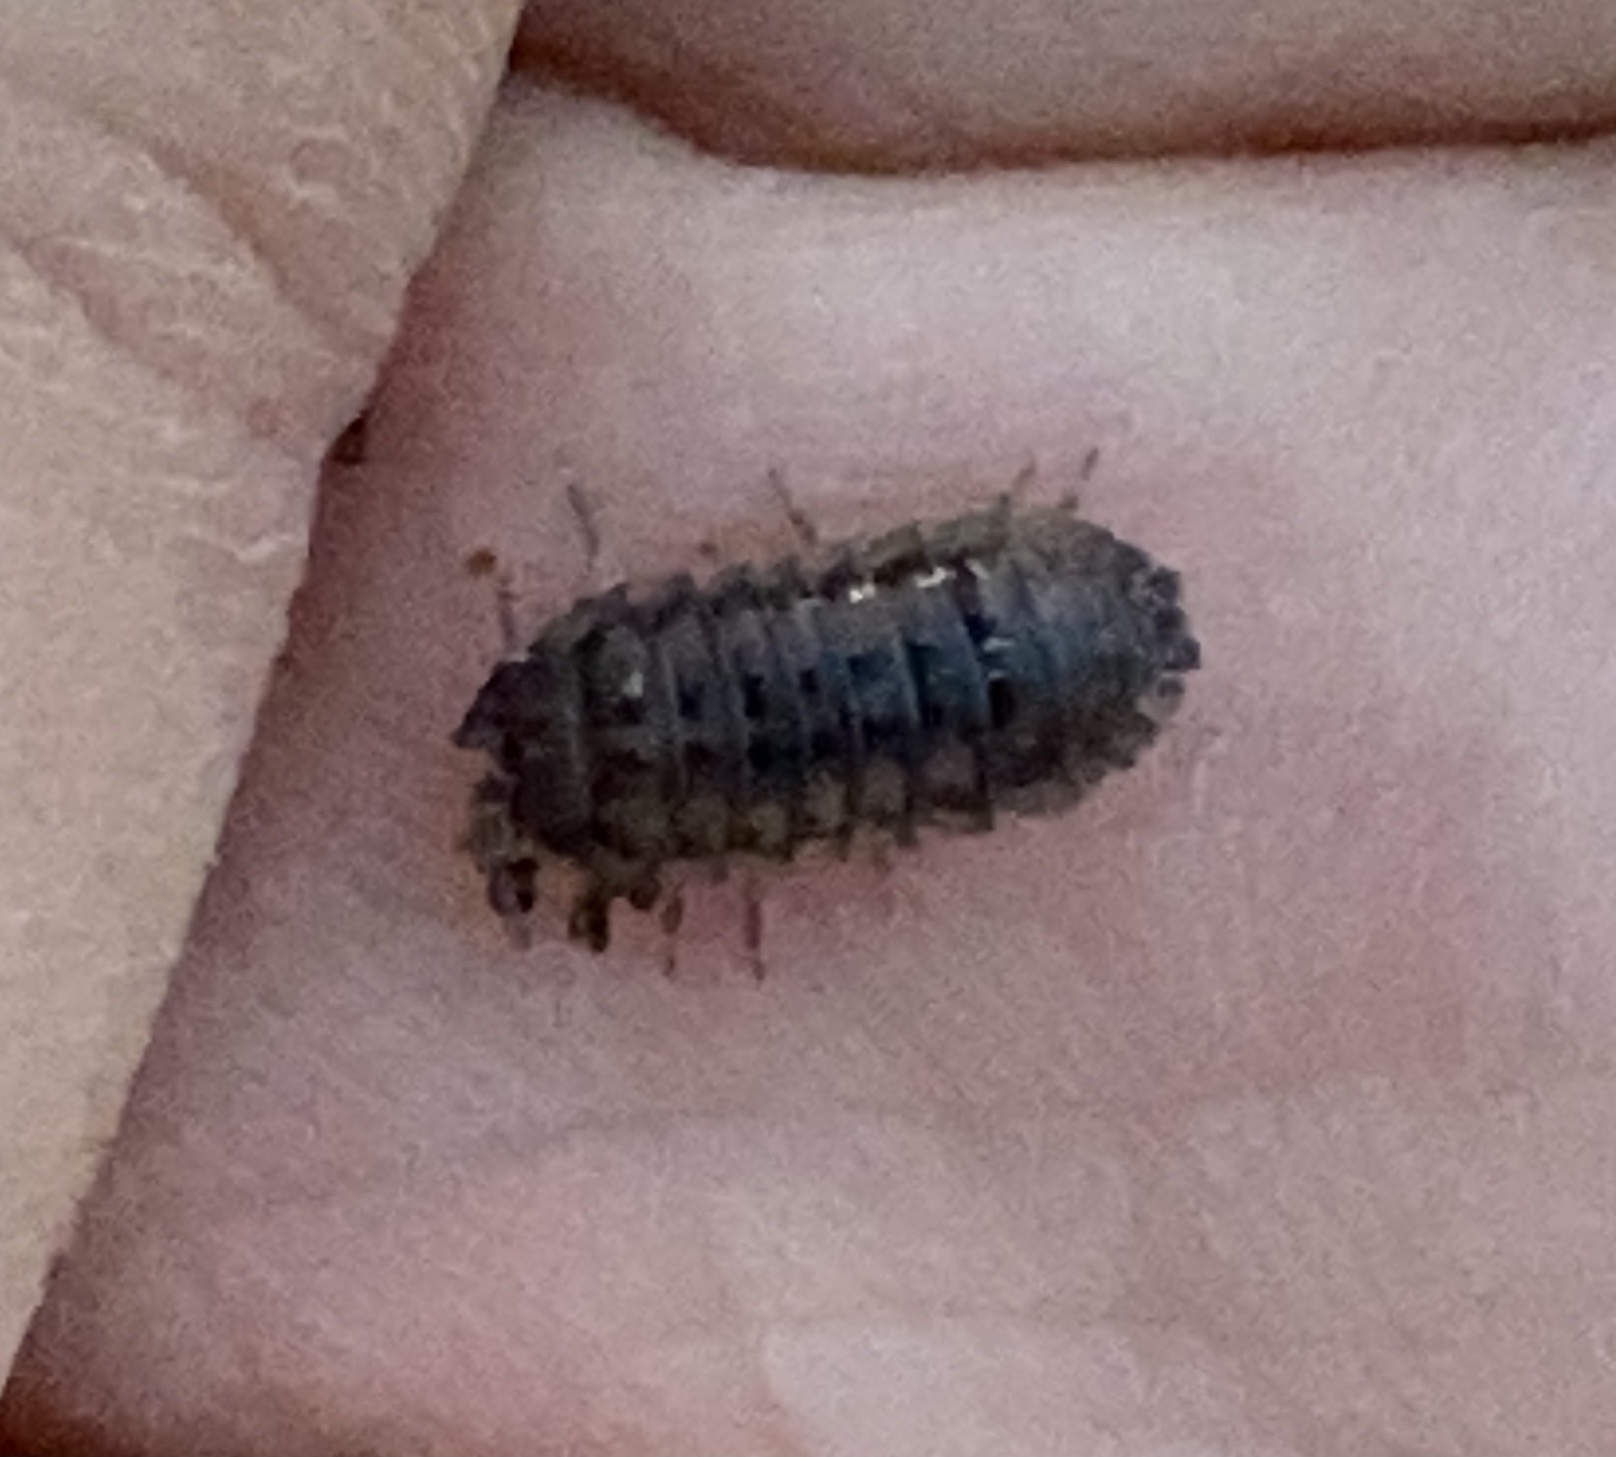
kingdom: Animalia
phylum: Arthropoda
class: Malacostraca
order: Isopoda
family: Armadillidiidae
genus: Armadillidium
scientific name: Armadillidium nasatum
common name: Isopod
